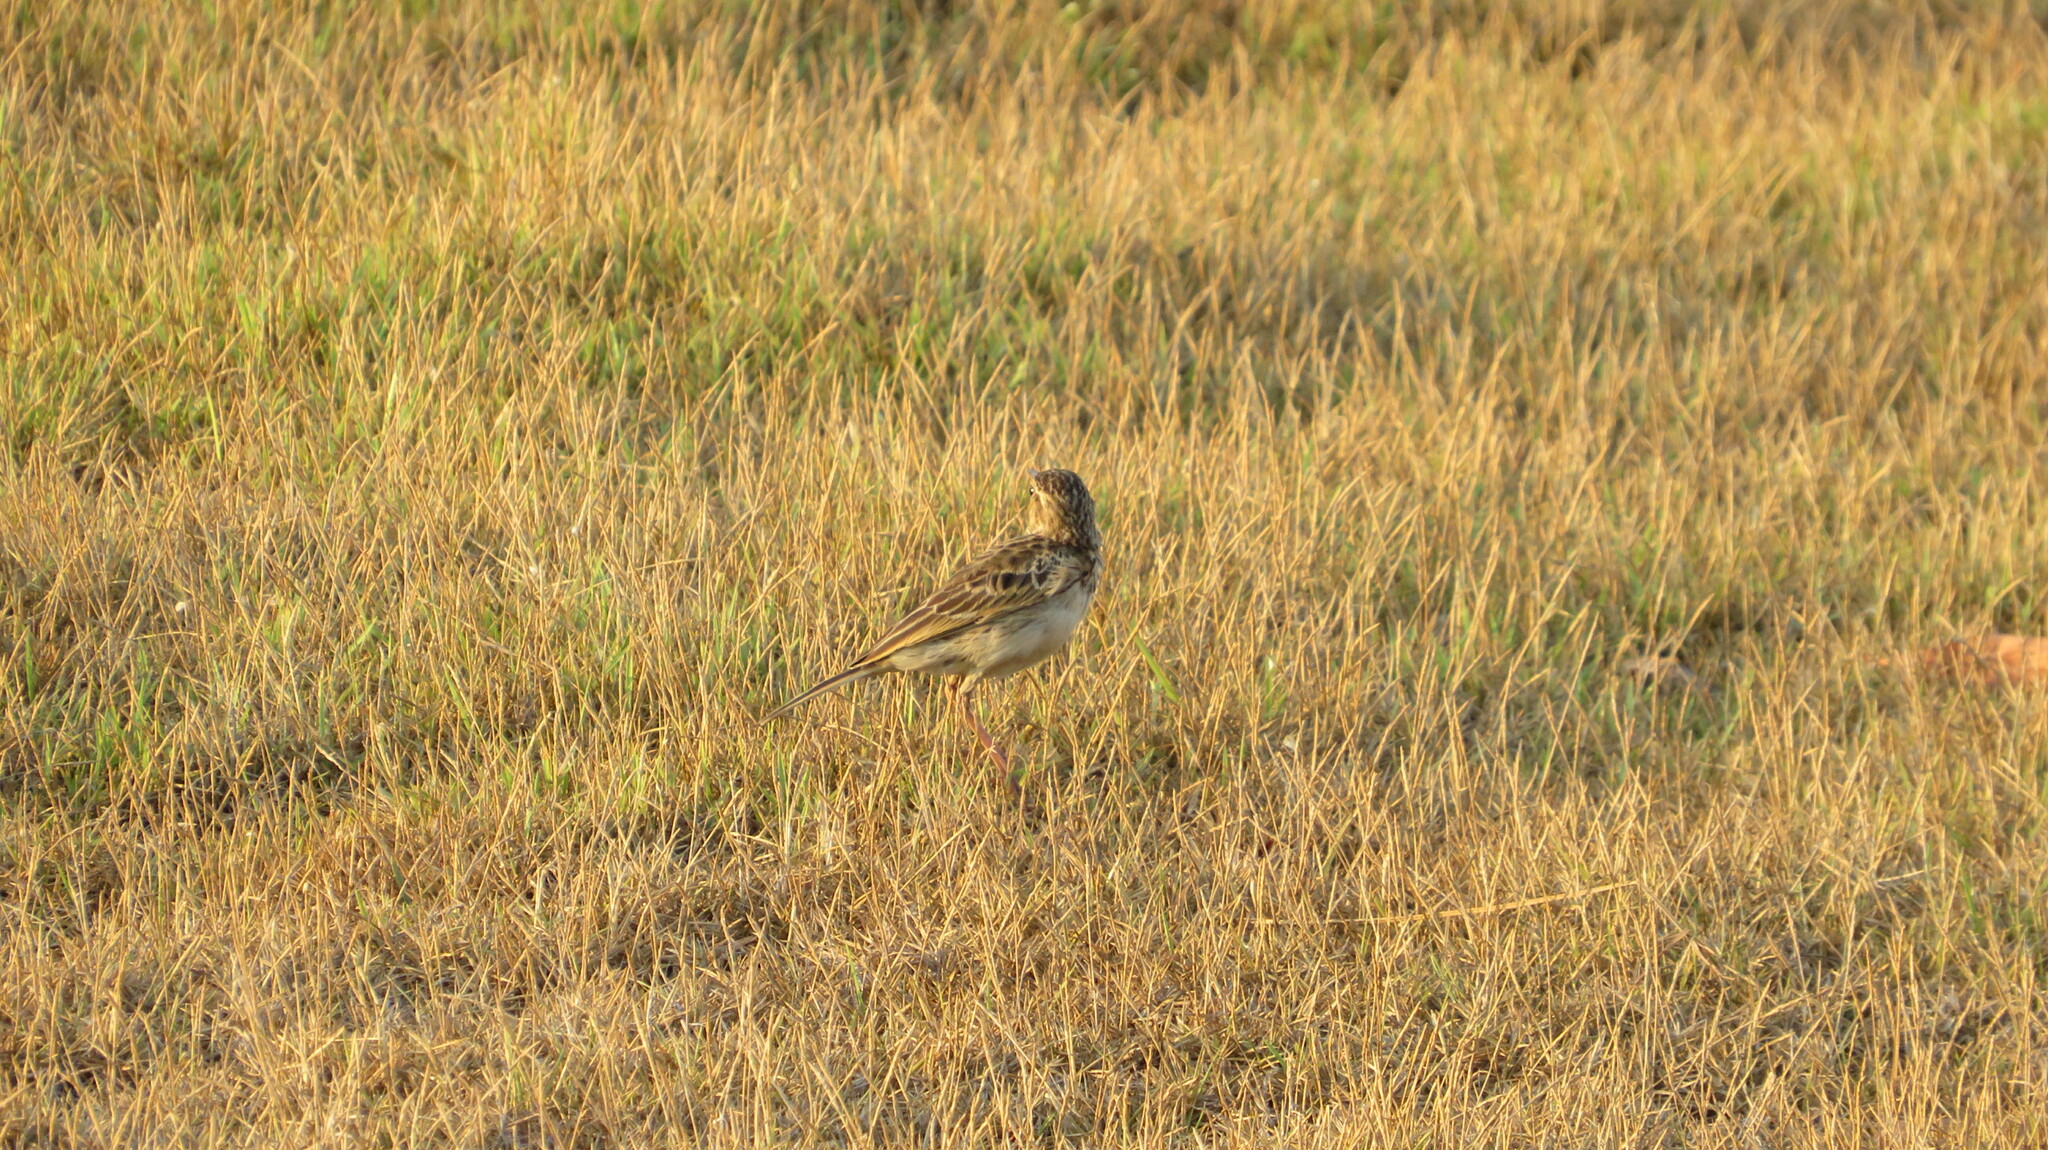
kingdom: Animalia
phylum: Chordata
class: Aves
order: Passeriformes
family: Motacillidae
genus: Anthus
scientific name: Anthus rufulus
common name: Paddyfield pipit
